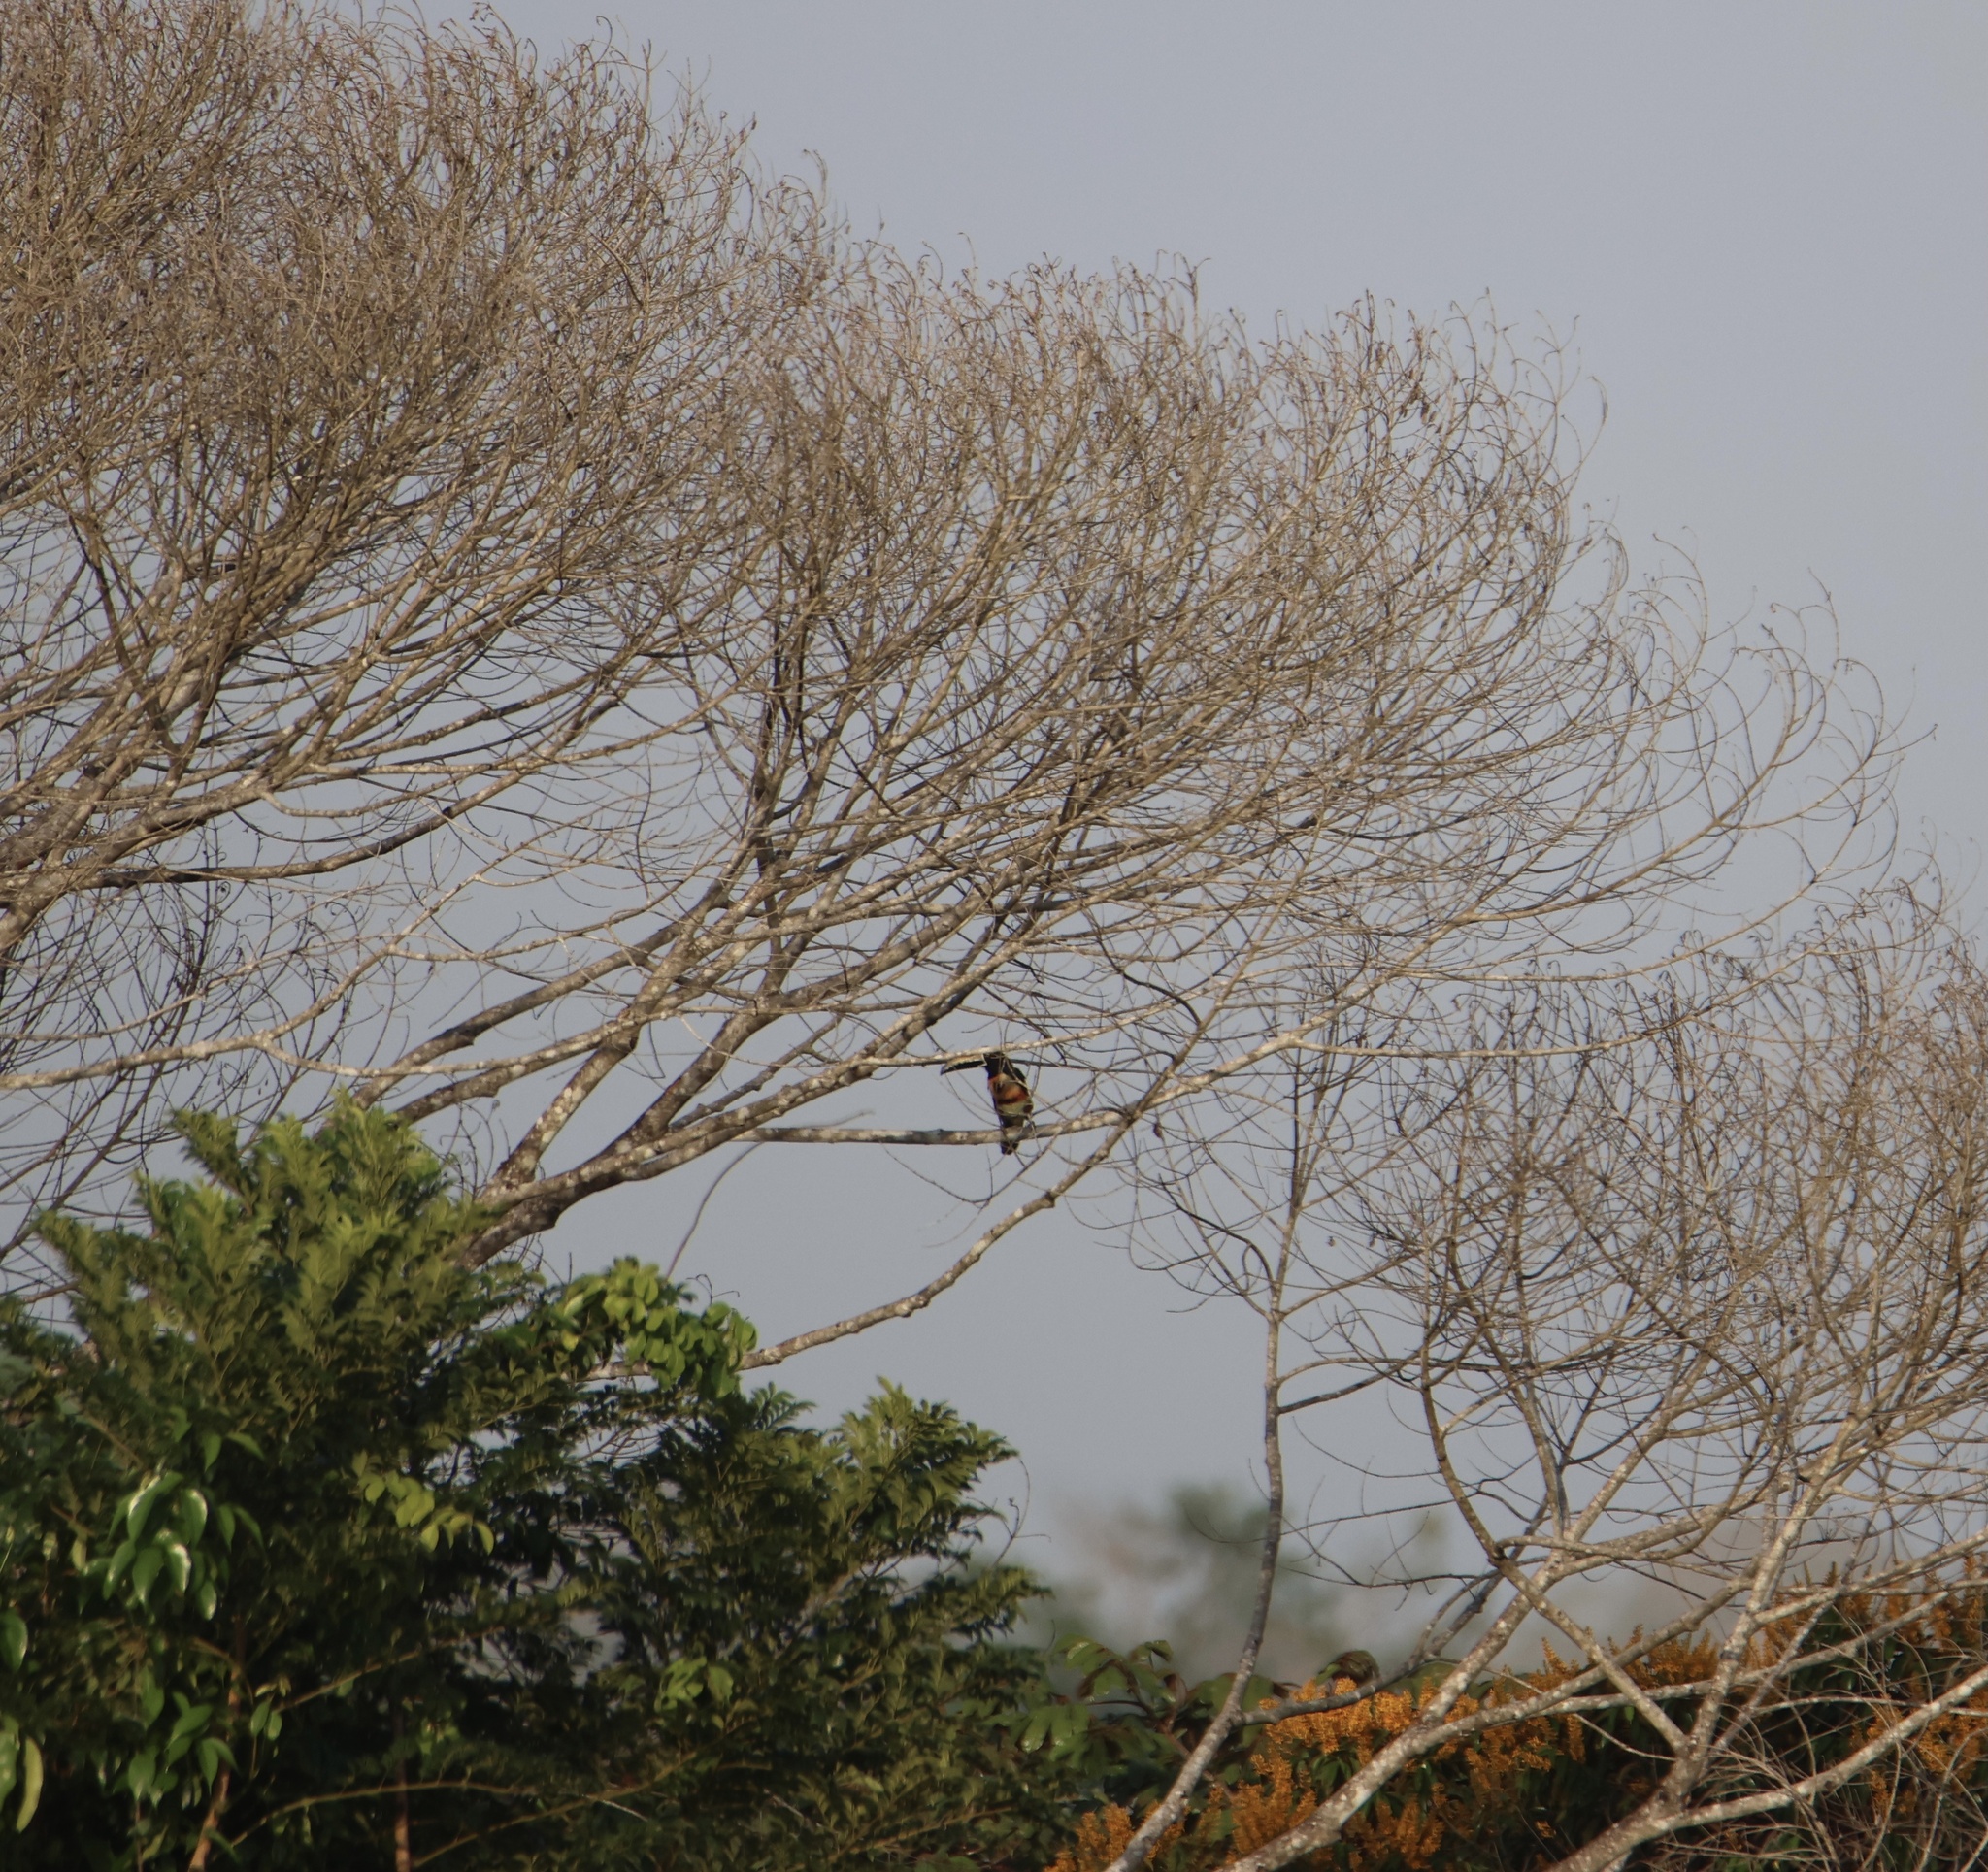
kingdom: Animalia
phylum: Chordata
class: Aves
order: Piciformes
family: Ramphastidae
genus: Pteroglossus
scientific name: Pteroglossus torquatus
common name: Collared aracari
